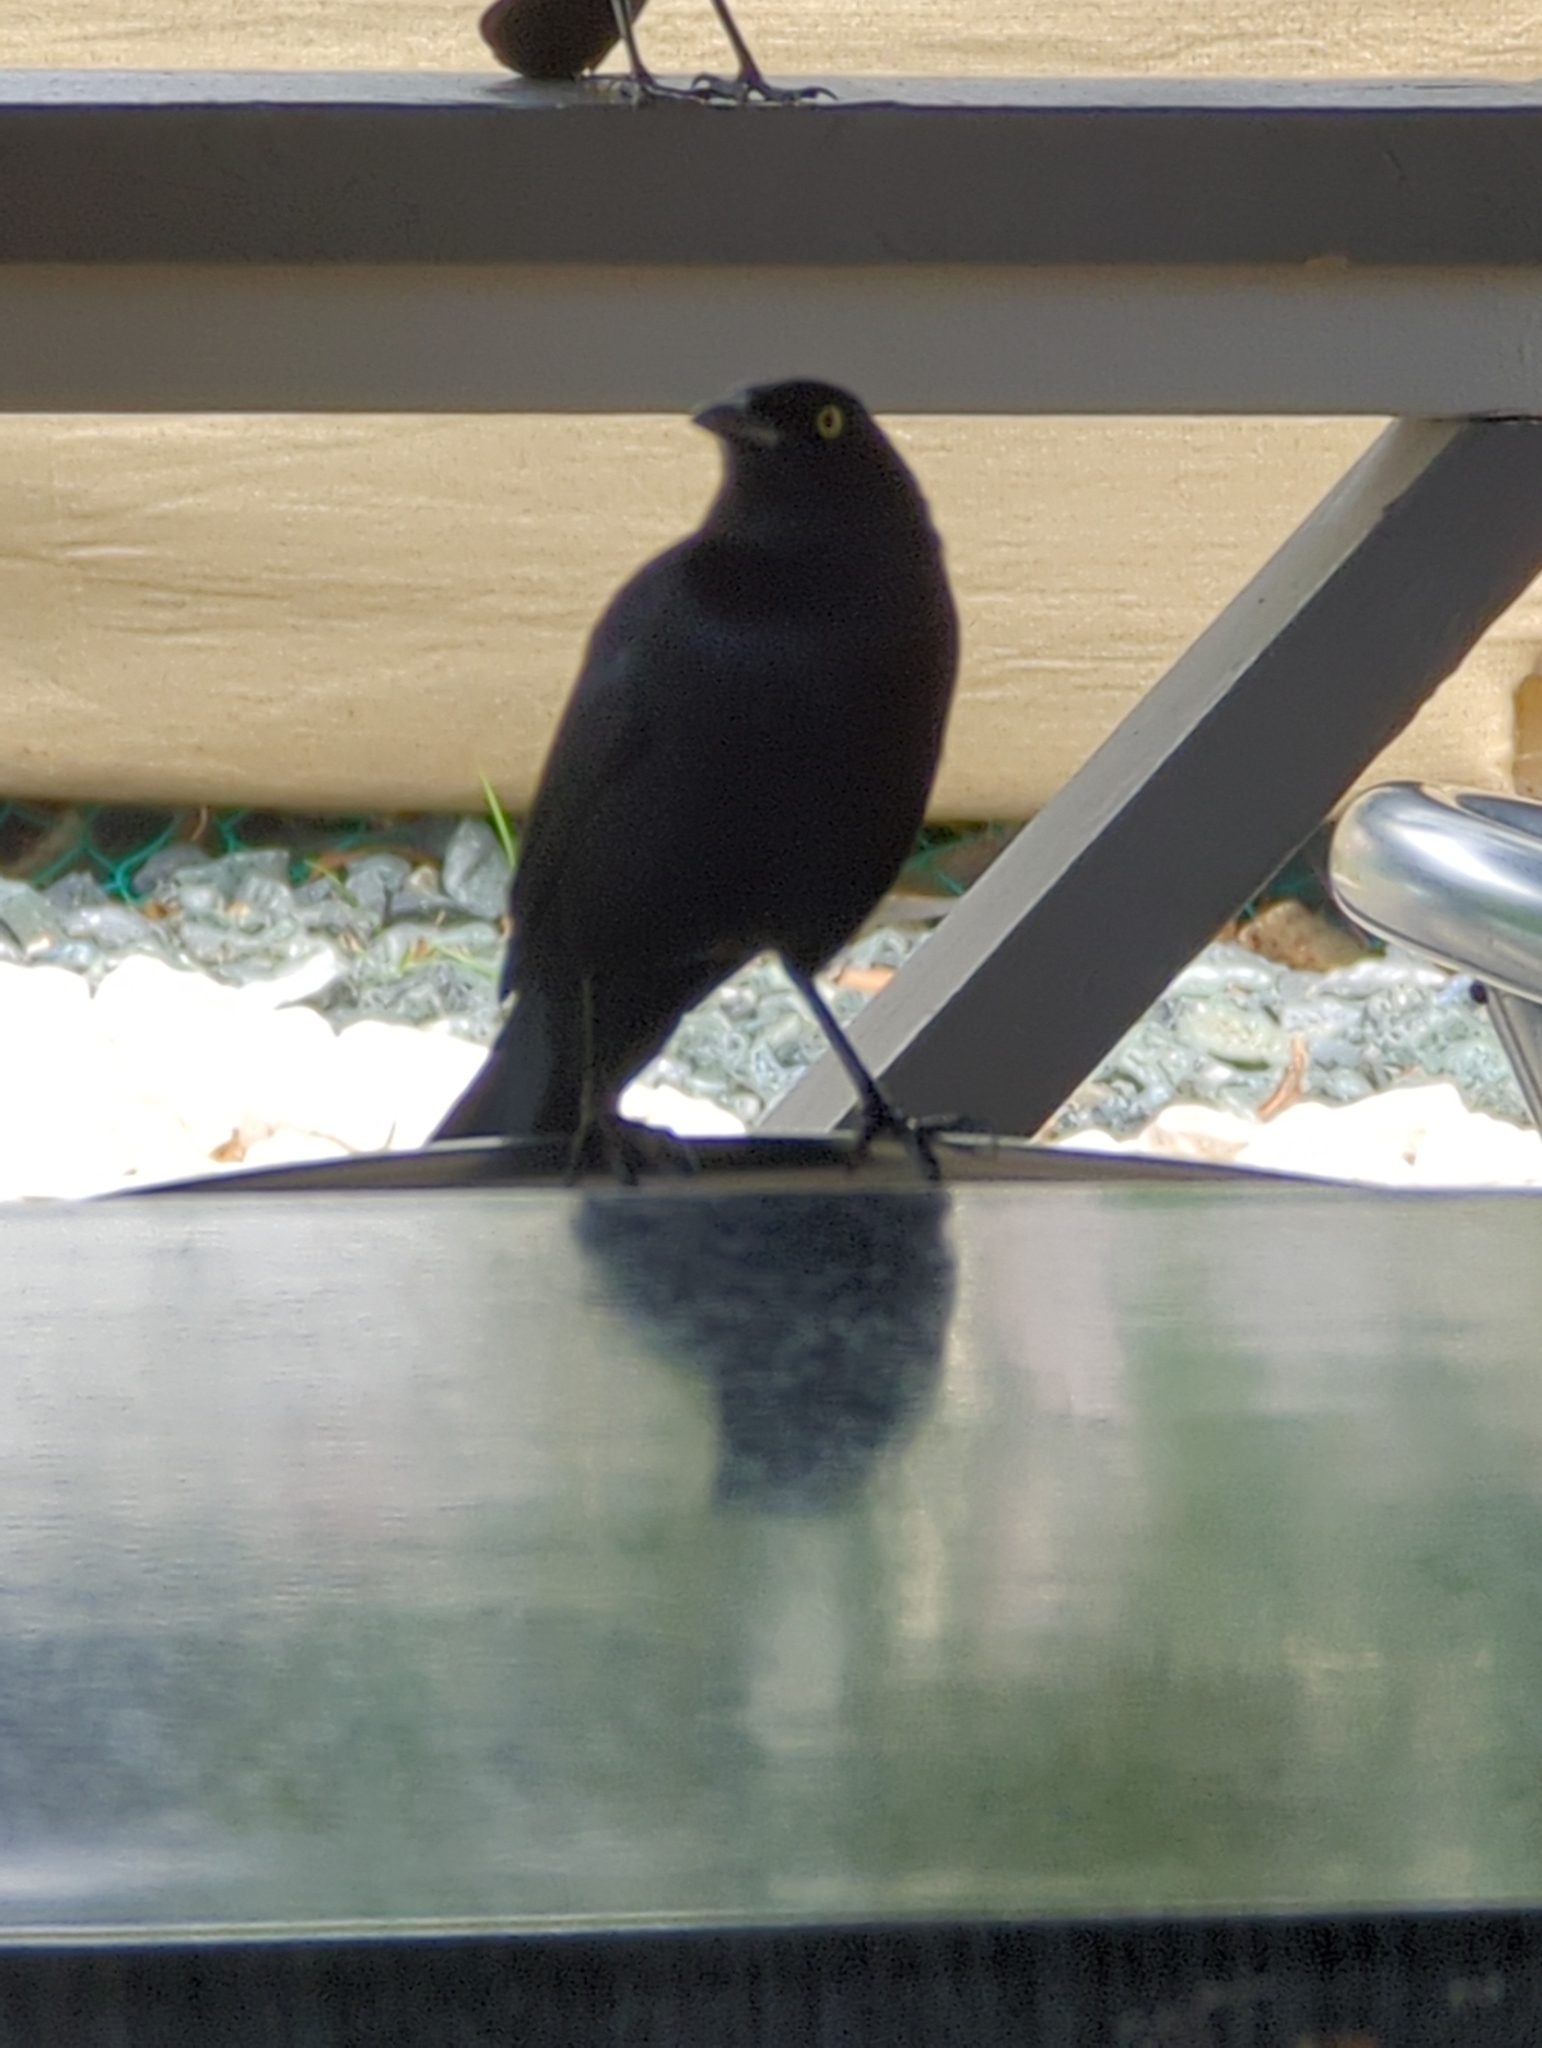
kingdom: Animalia
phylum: Chordata
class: Aves
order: Passeriformes
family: Icteridae
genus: Quiscalus
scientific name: Quiscalus niger
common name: Greater antillean grackle
